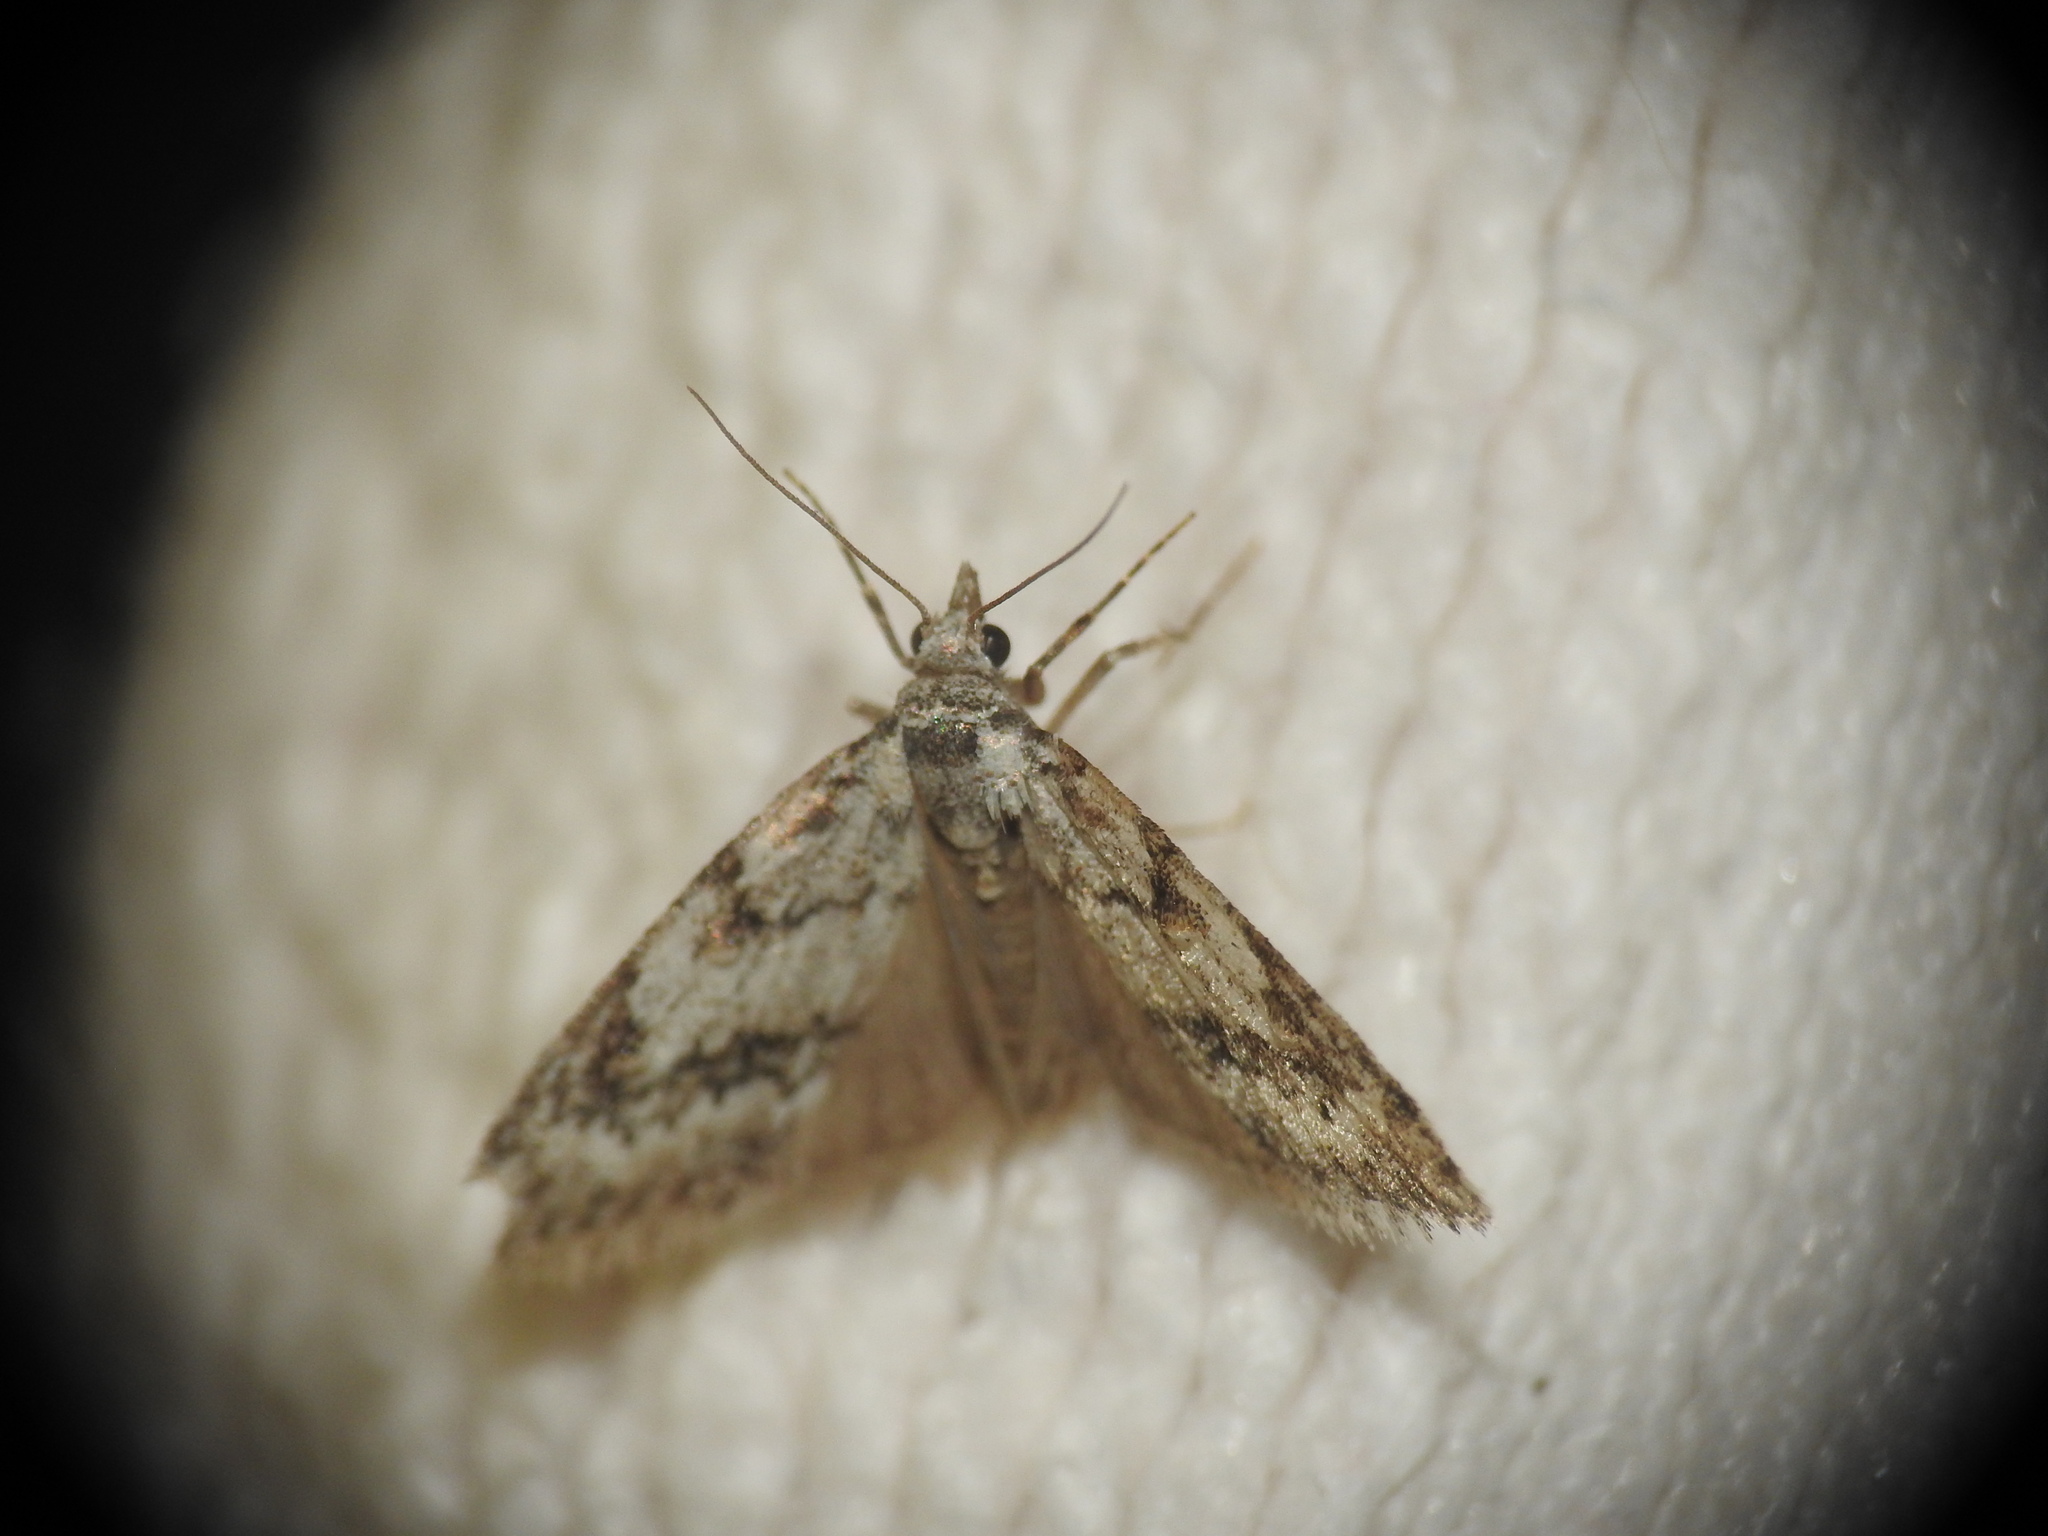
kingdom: Animalia
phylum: Arthropoda
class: Insecta
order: Lepidoptera
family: Nolidae
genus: Nola
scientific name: Nola cicatricalis
